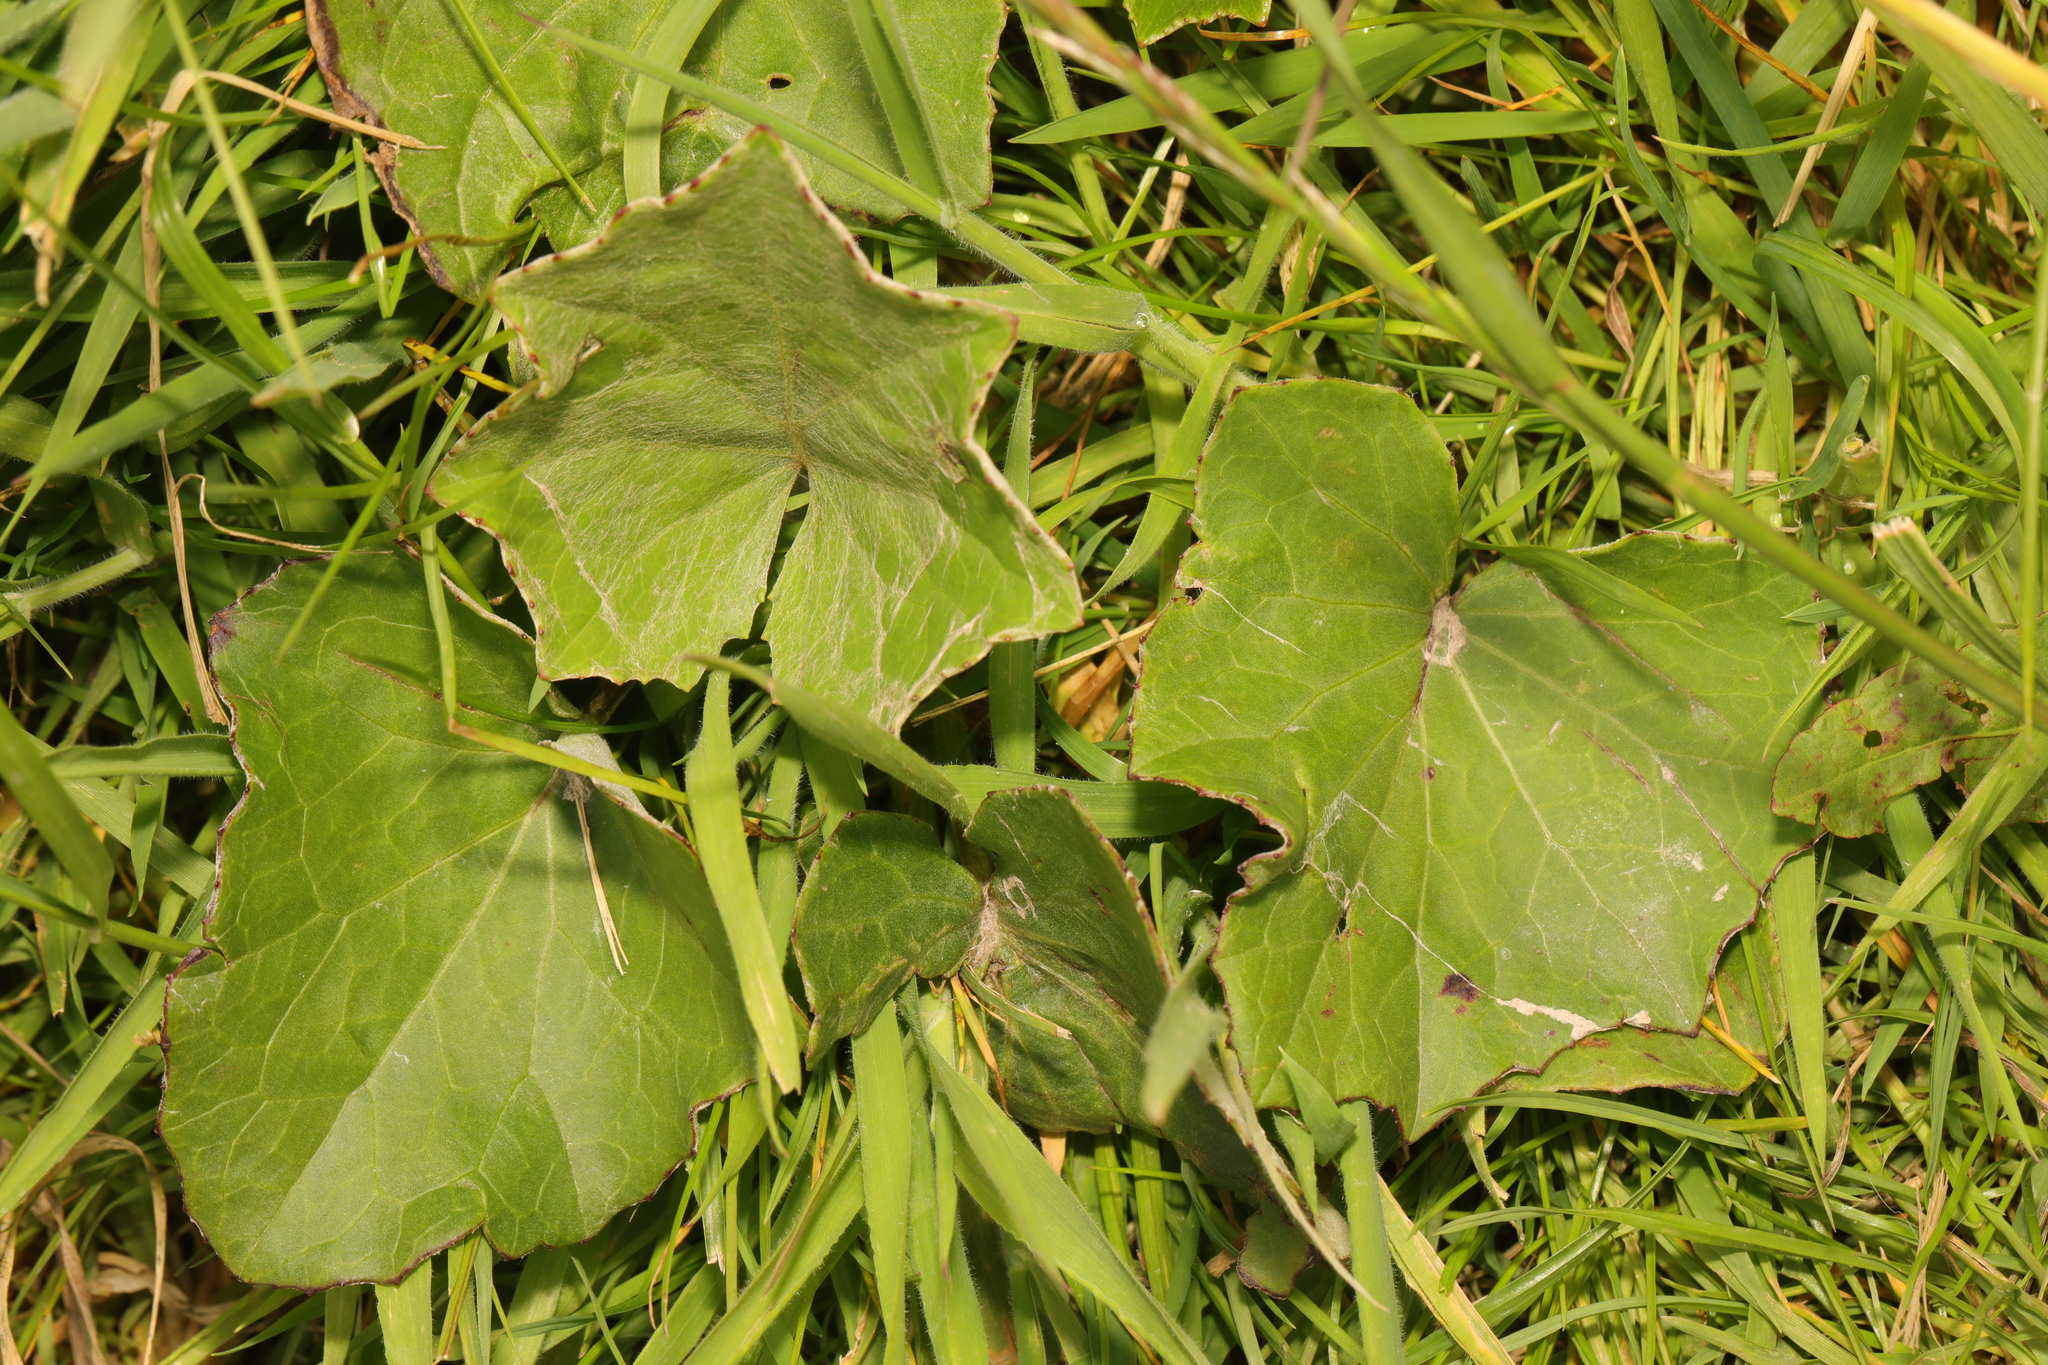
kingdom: Plantae
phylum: Tracheophyta
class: Magnoliopsida
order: Asterales
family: Asteraceae
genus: Tussilago
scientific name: Tussilago farfara
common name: Coltsfoot
